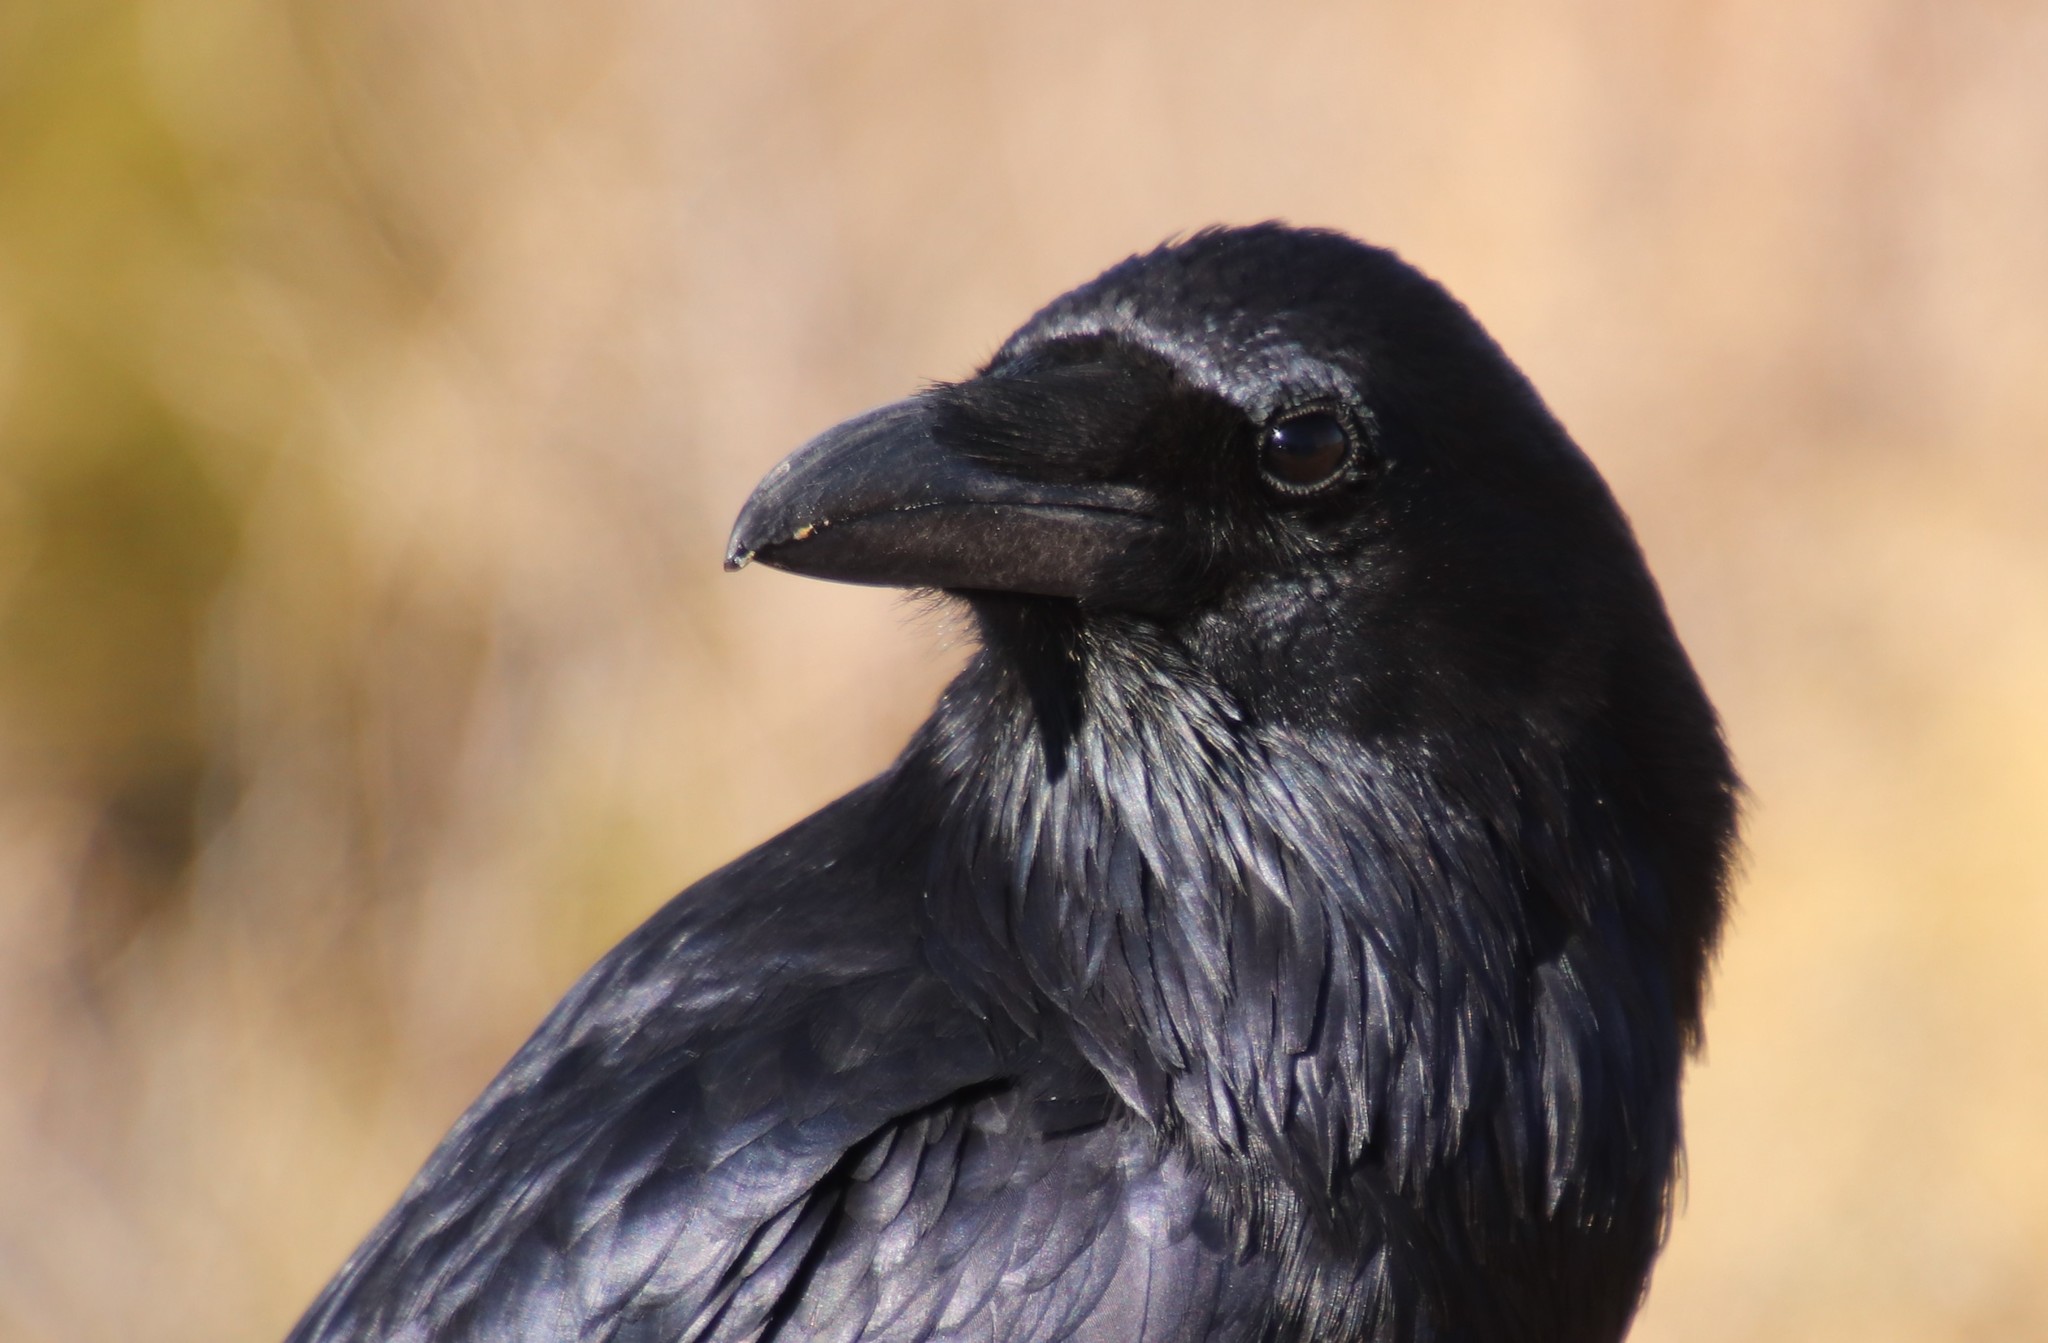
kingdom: Animalia
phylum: Chordata
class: Aves
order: Passeriformes
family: Corvidae
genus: Corvus
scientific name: Corvus corax
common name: Common raven
